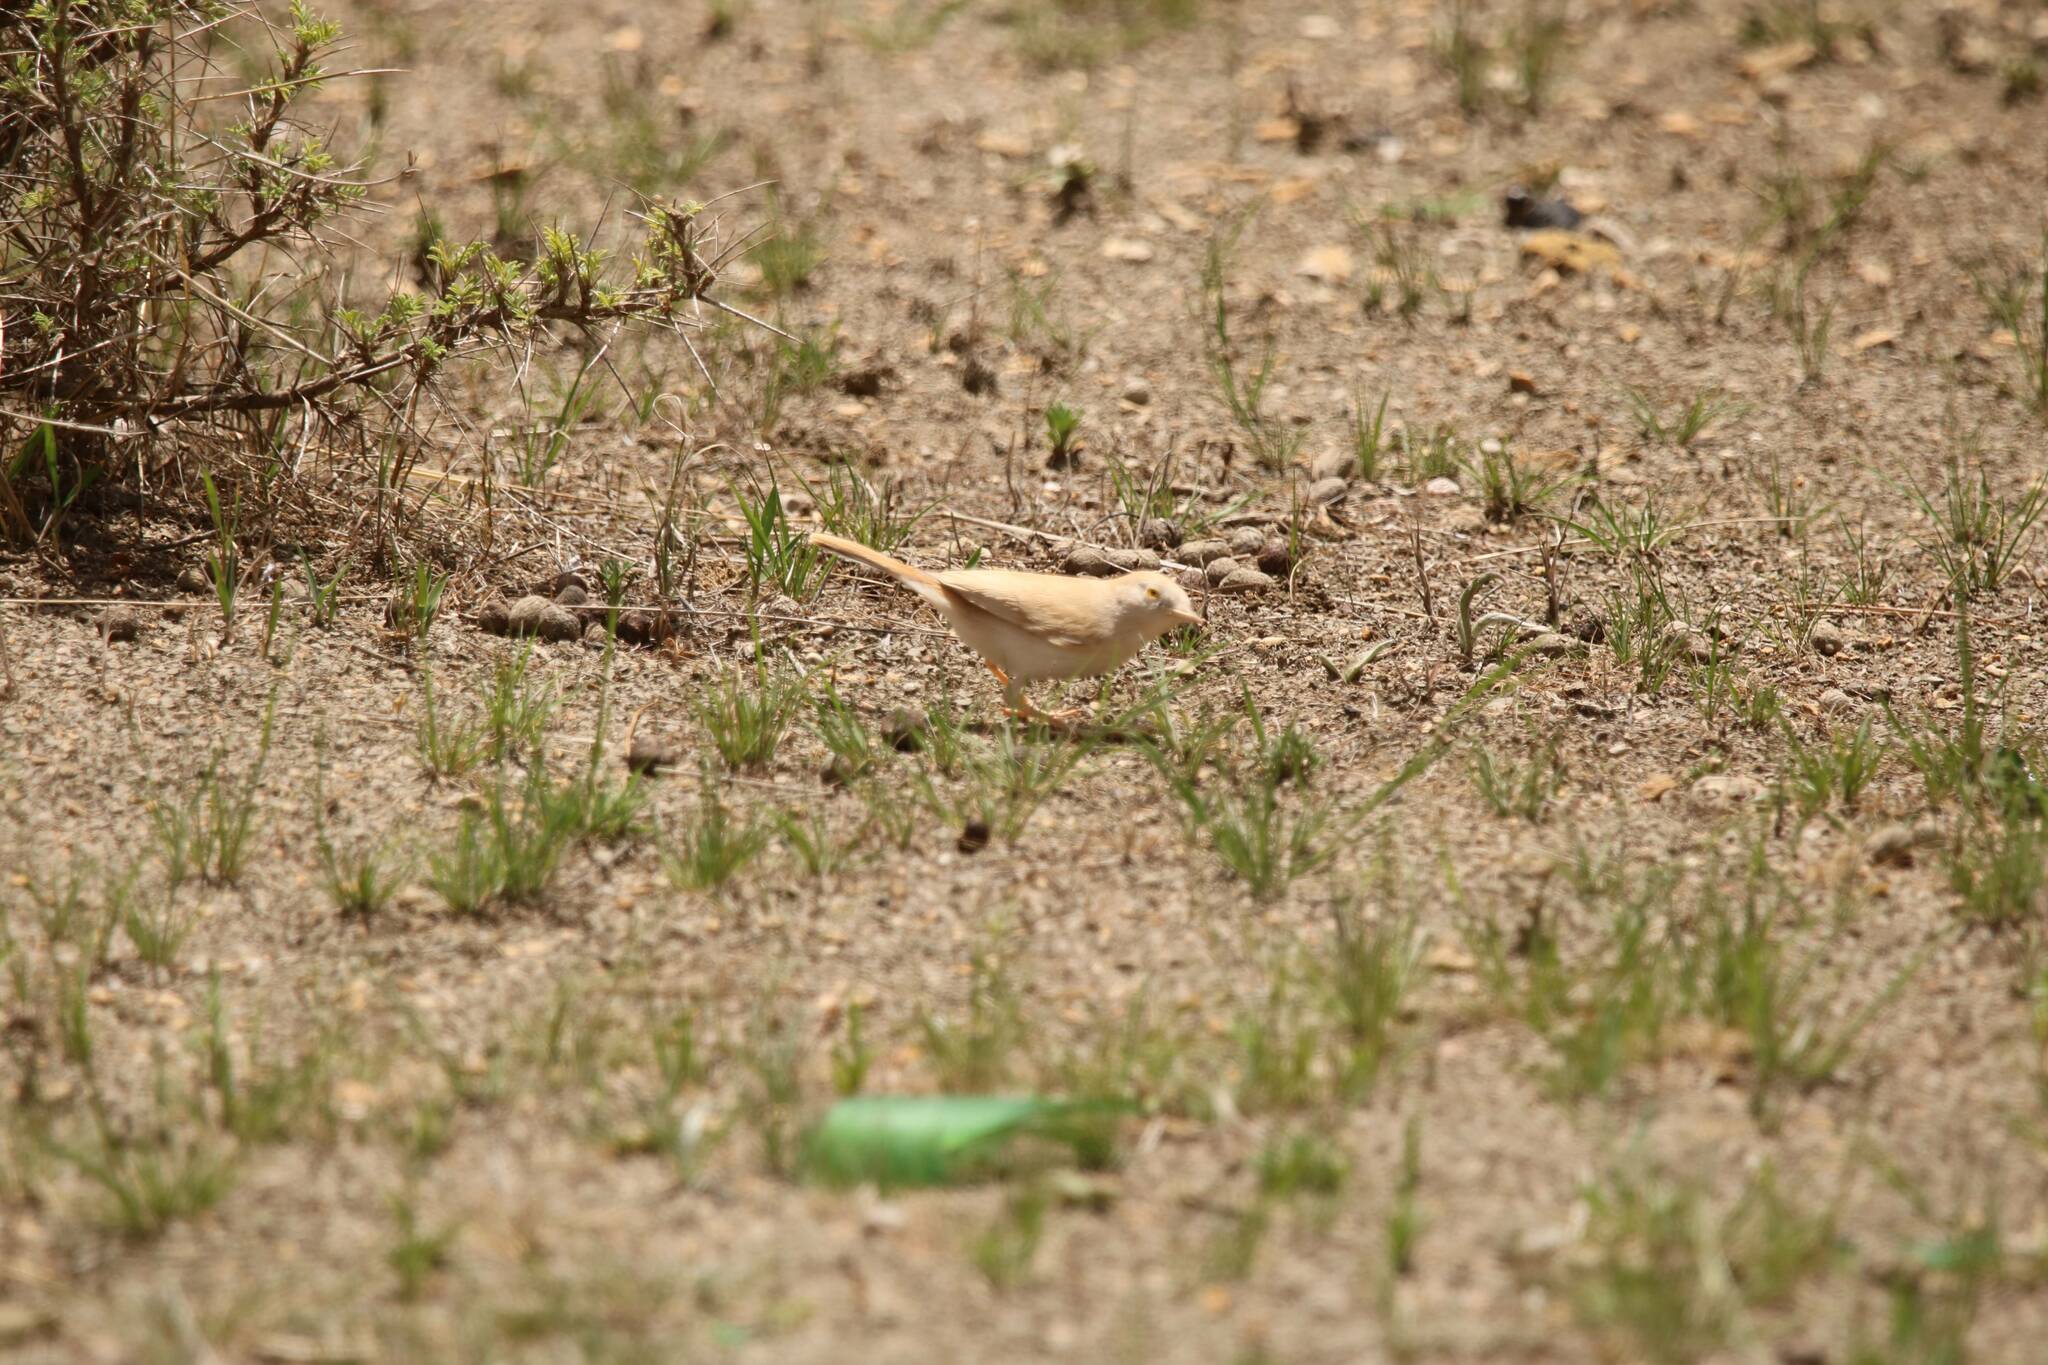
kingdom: Animalia
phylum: Chordata
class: Aves
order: Passeriformes
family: Sylviidae
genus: Sylvia
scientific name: Sylvia deserti
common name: African desert warbler
